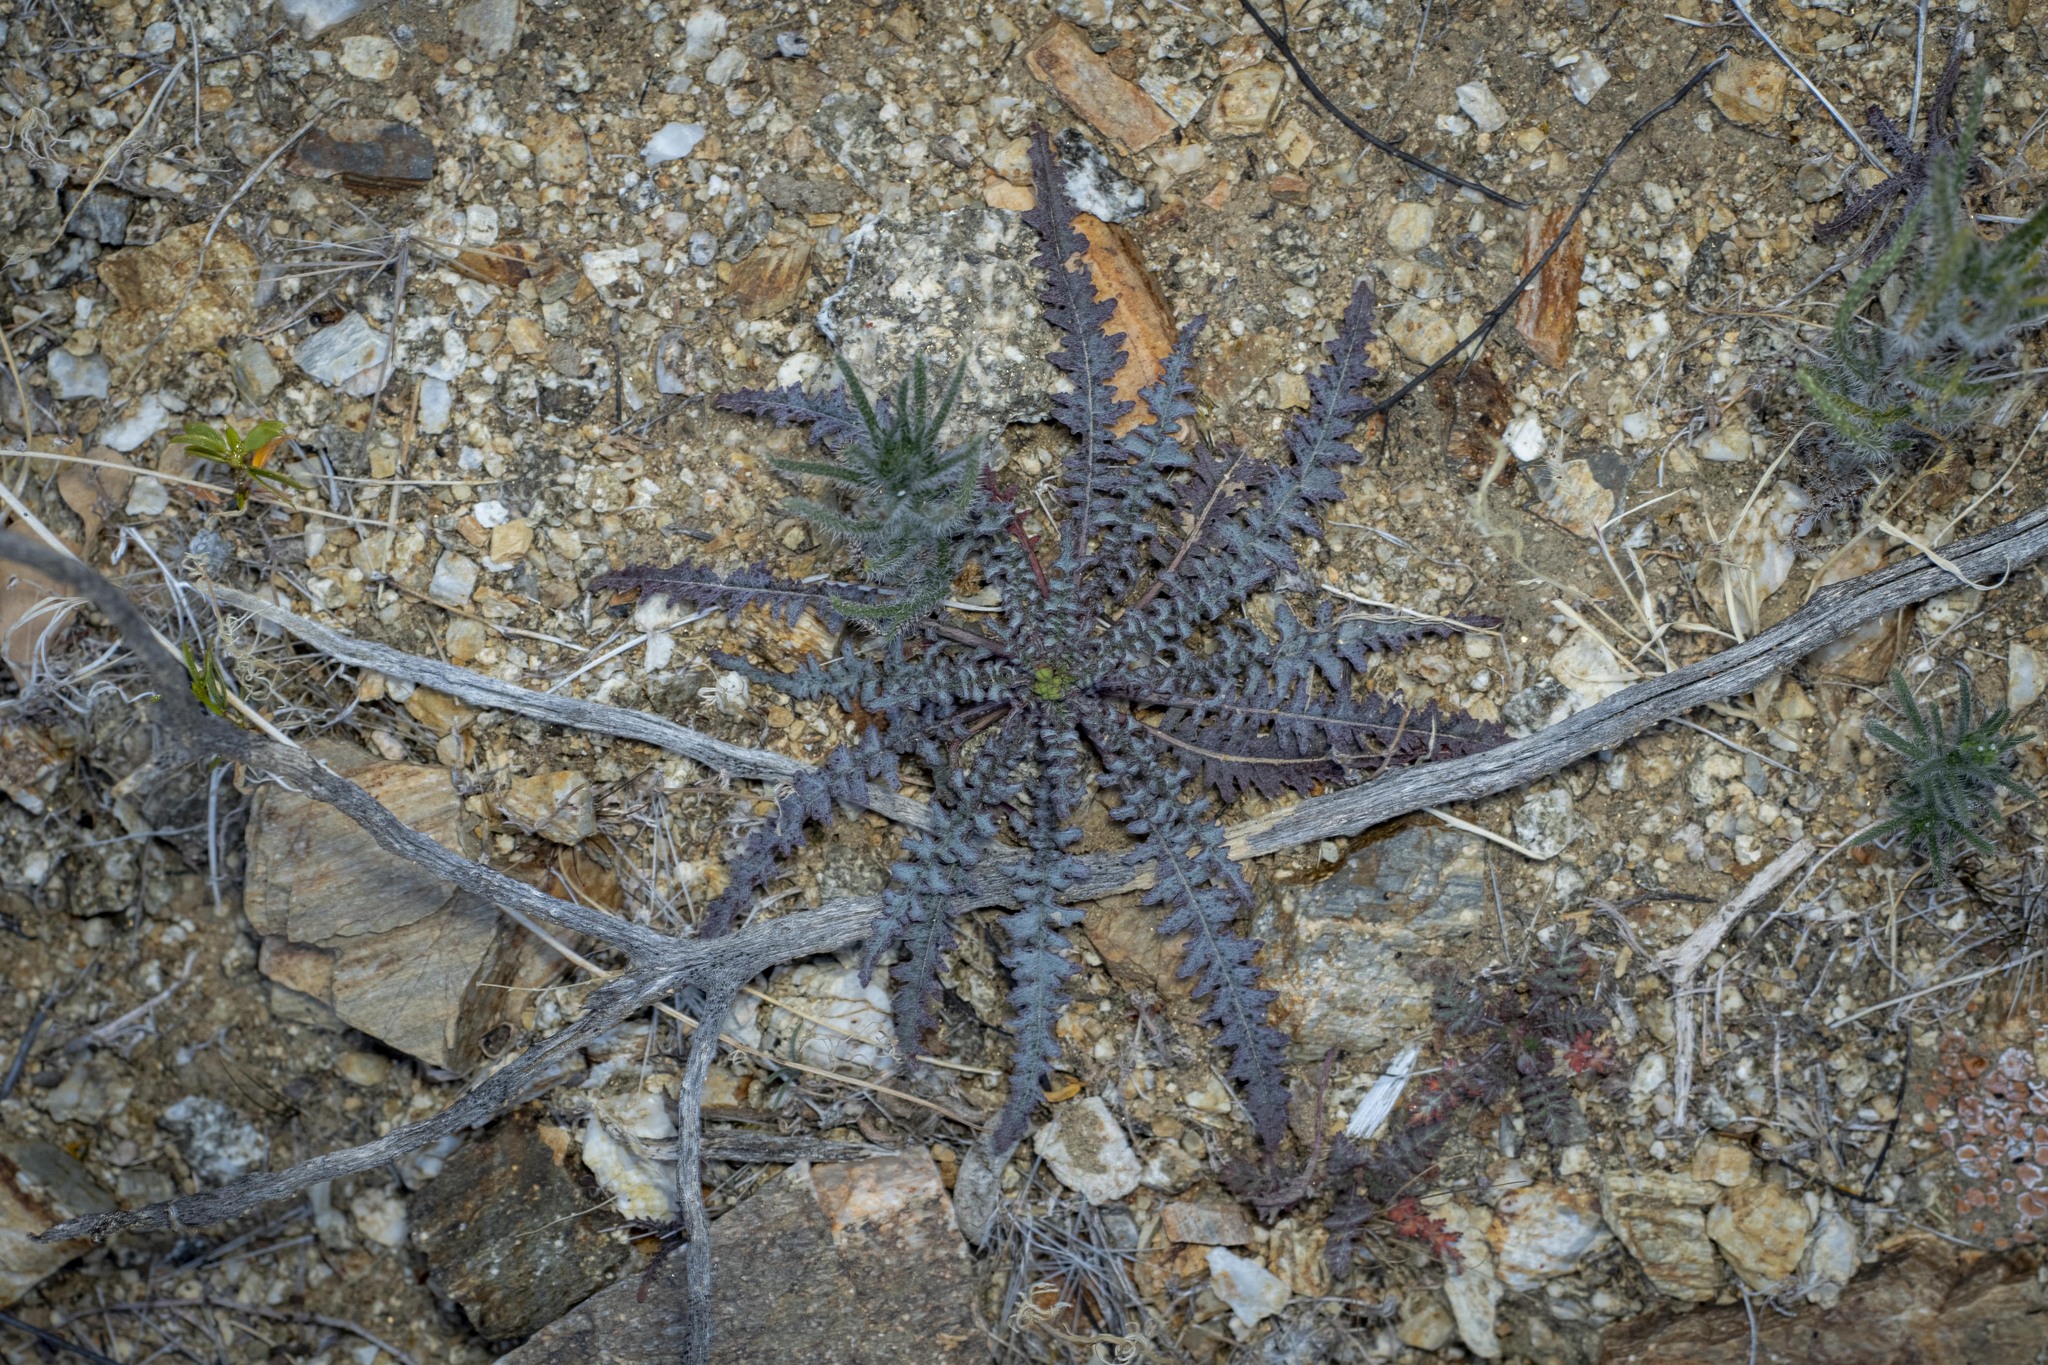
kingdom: Plantae
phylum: Tracheophyta
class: Magnoliopsida
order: Myrtales
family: Onagraceae
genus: Eulobus
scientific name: Eulobus californicus
